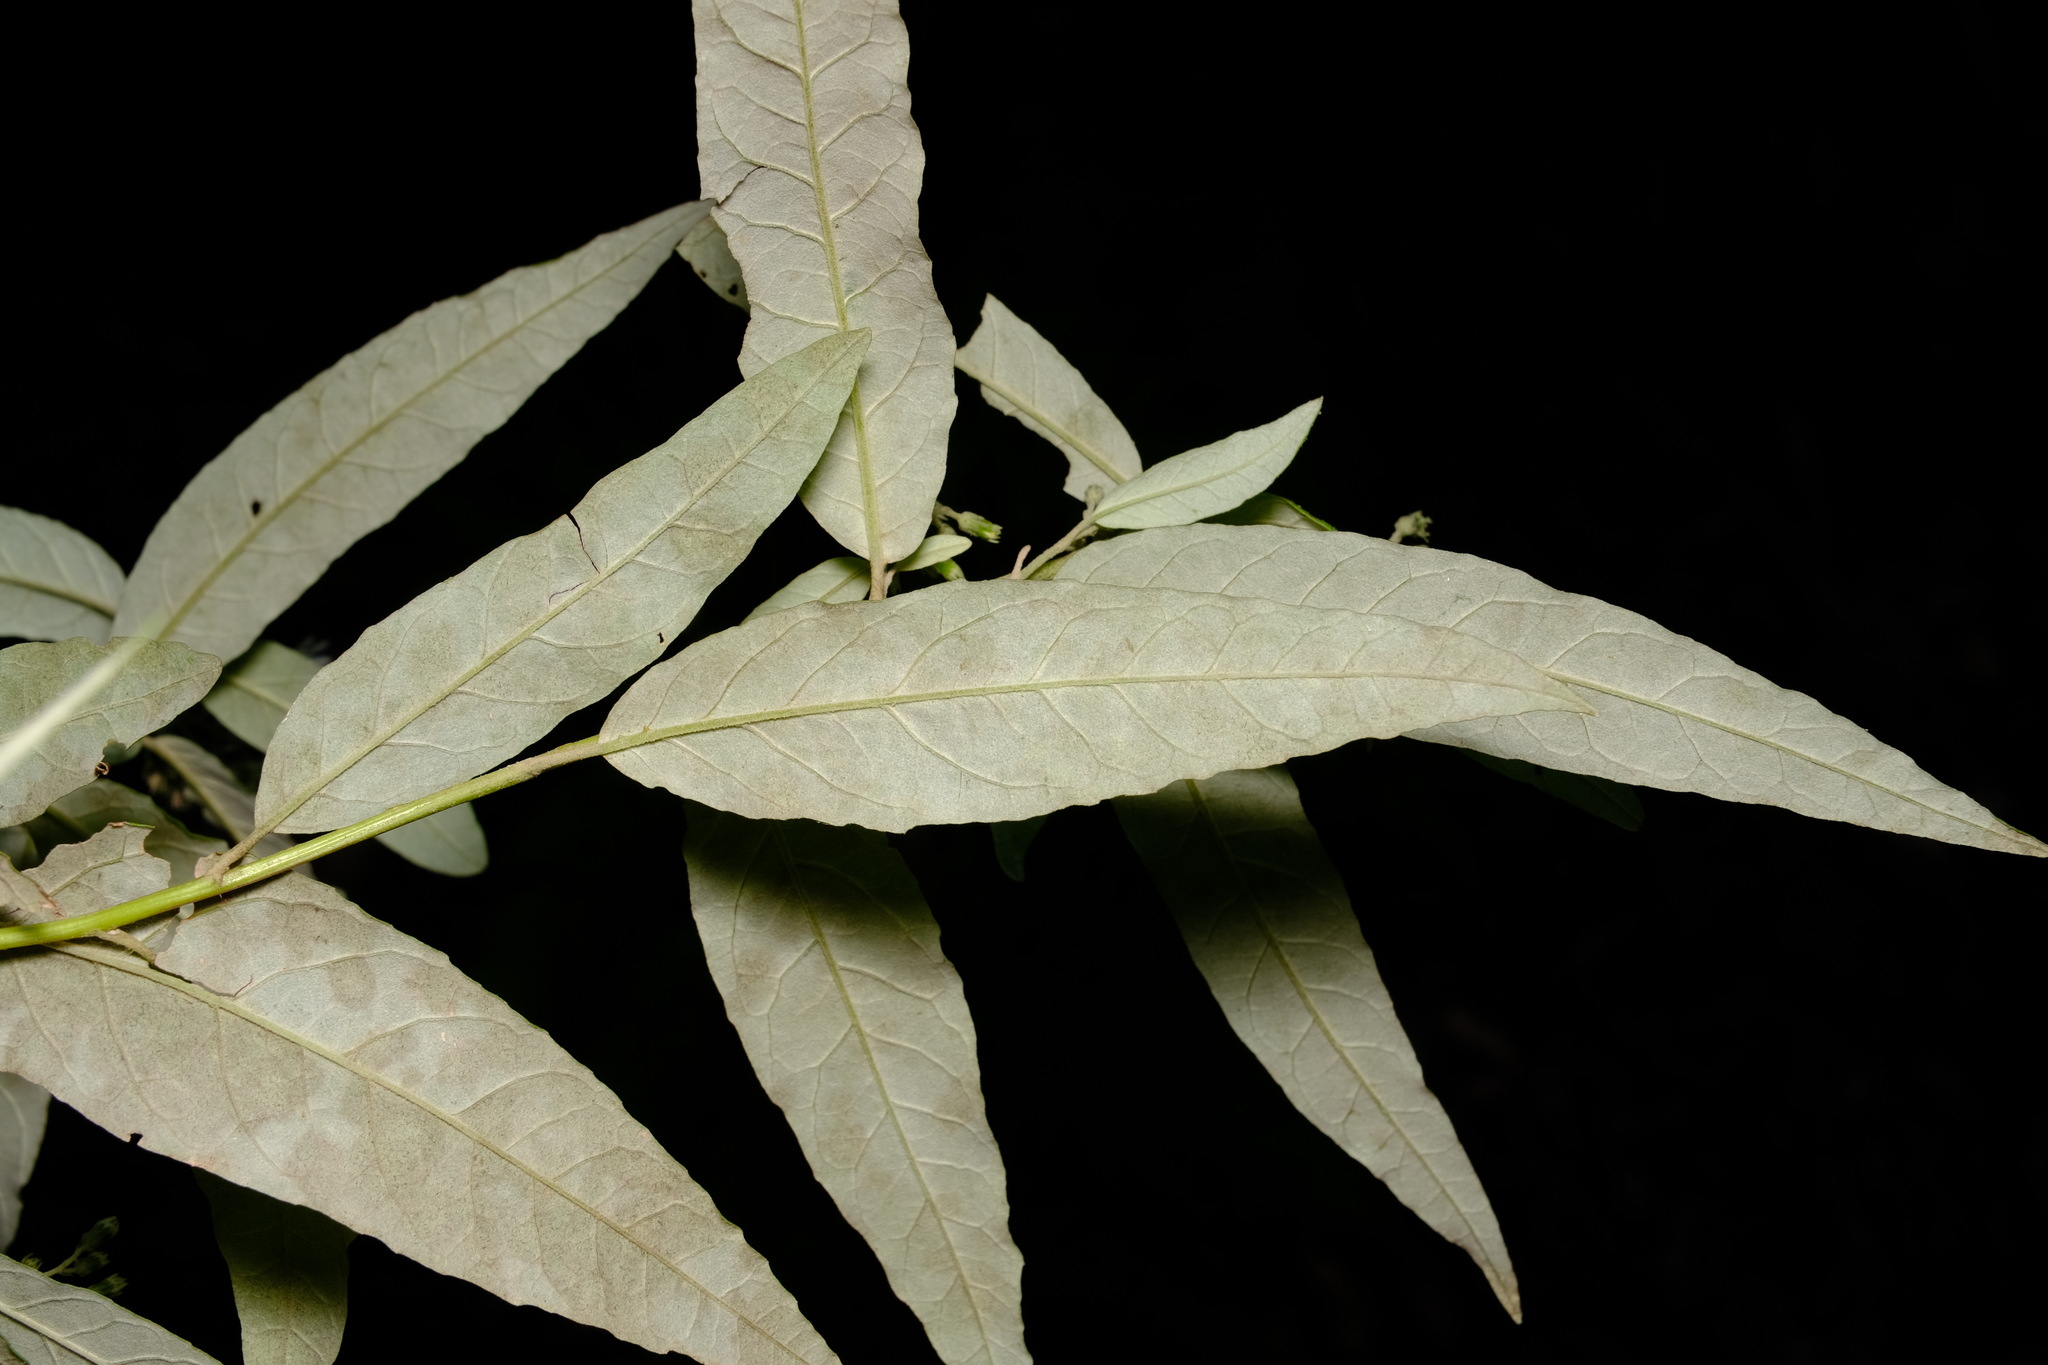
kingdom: Plantae
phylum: Tracheophyta
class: Magnoliopsida
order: Asterales
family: Asteraceae
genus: Olearia
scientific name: Olearia lirata
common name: Dusty daisybush
